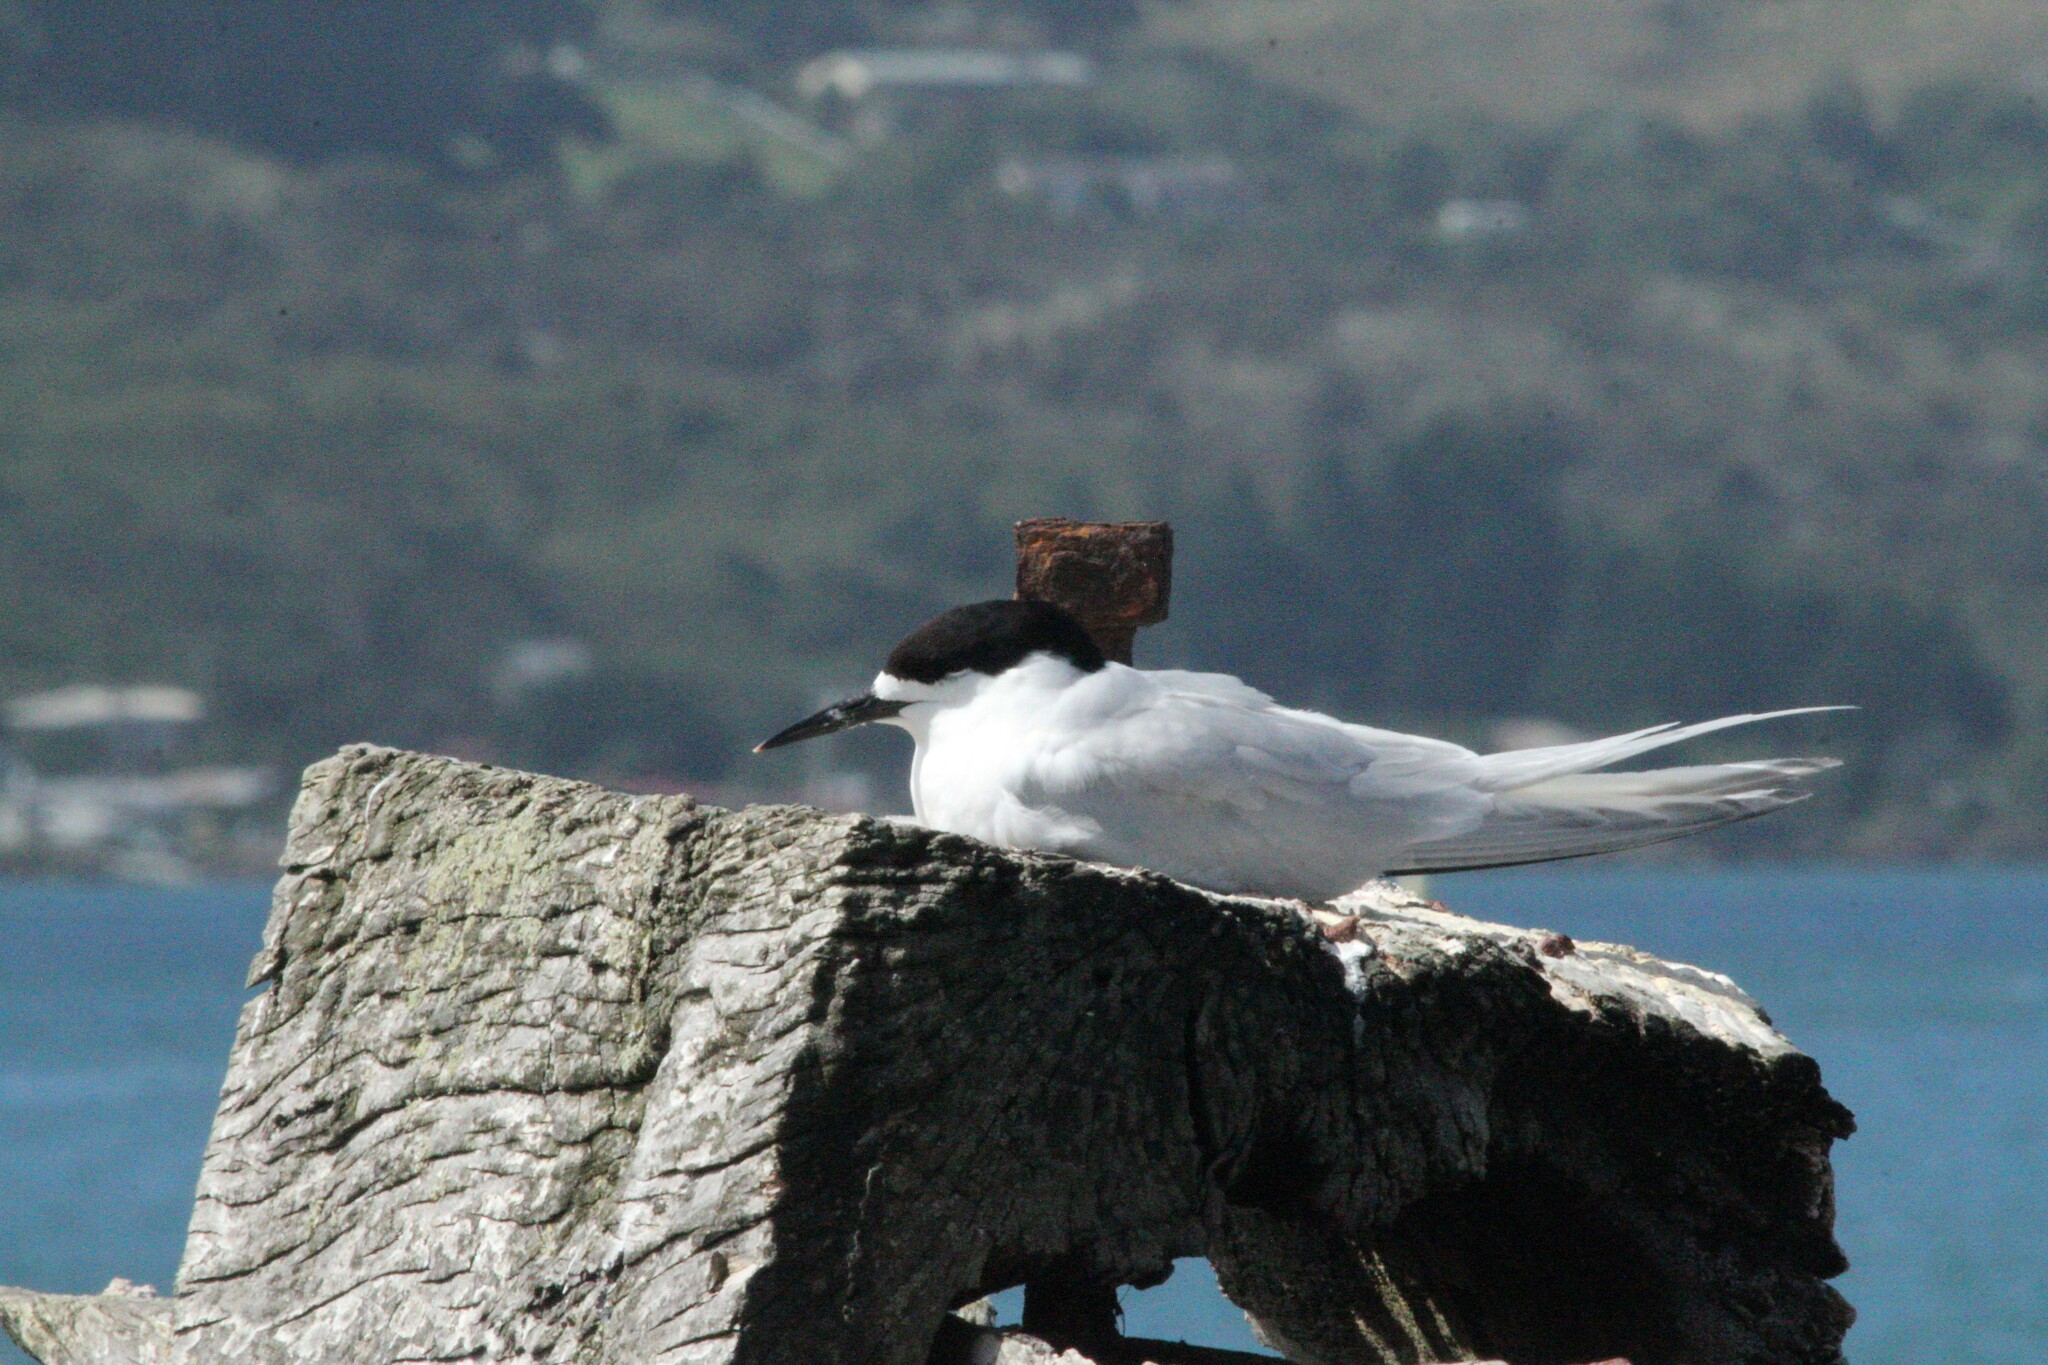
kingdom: Animalia
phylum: Chordata
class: Aves
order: Charadriiformes
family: Laridae
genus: Sterna
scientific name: Sterna striata
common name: White-fronted tern
